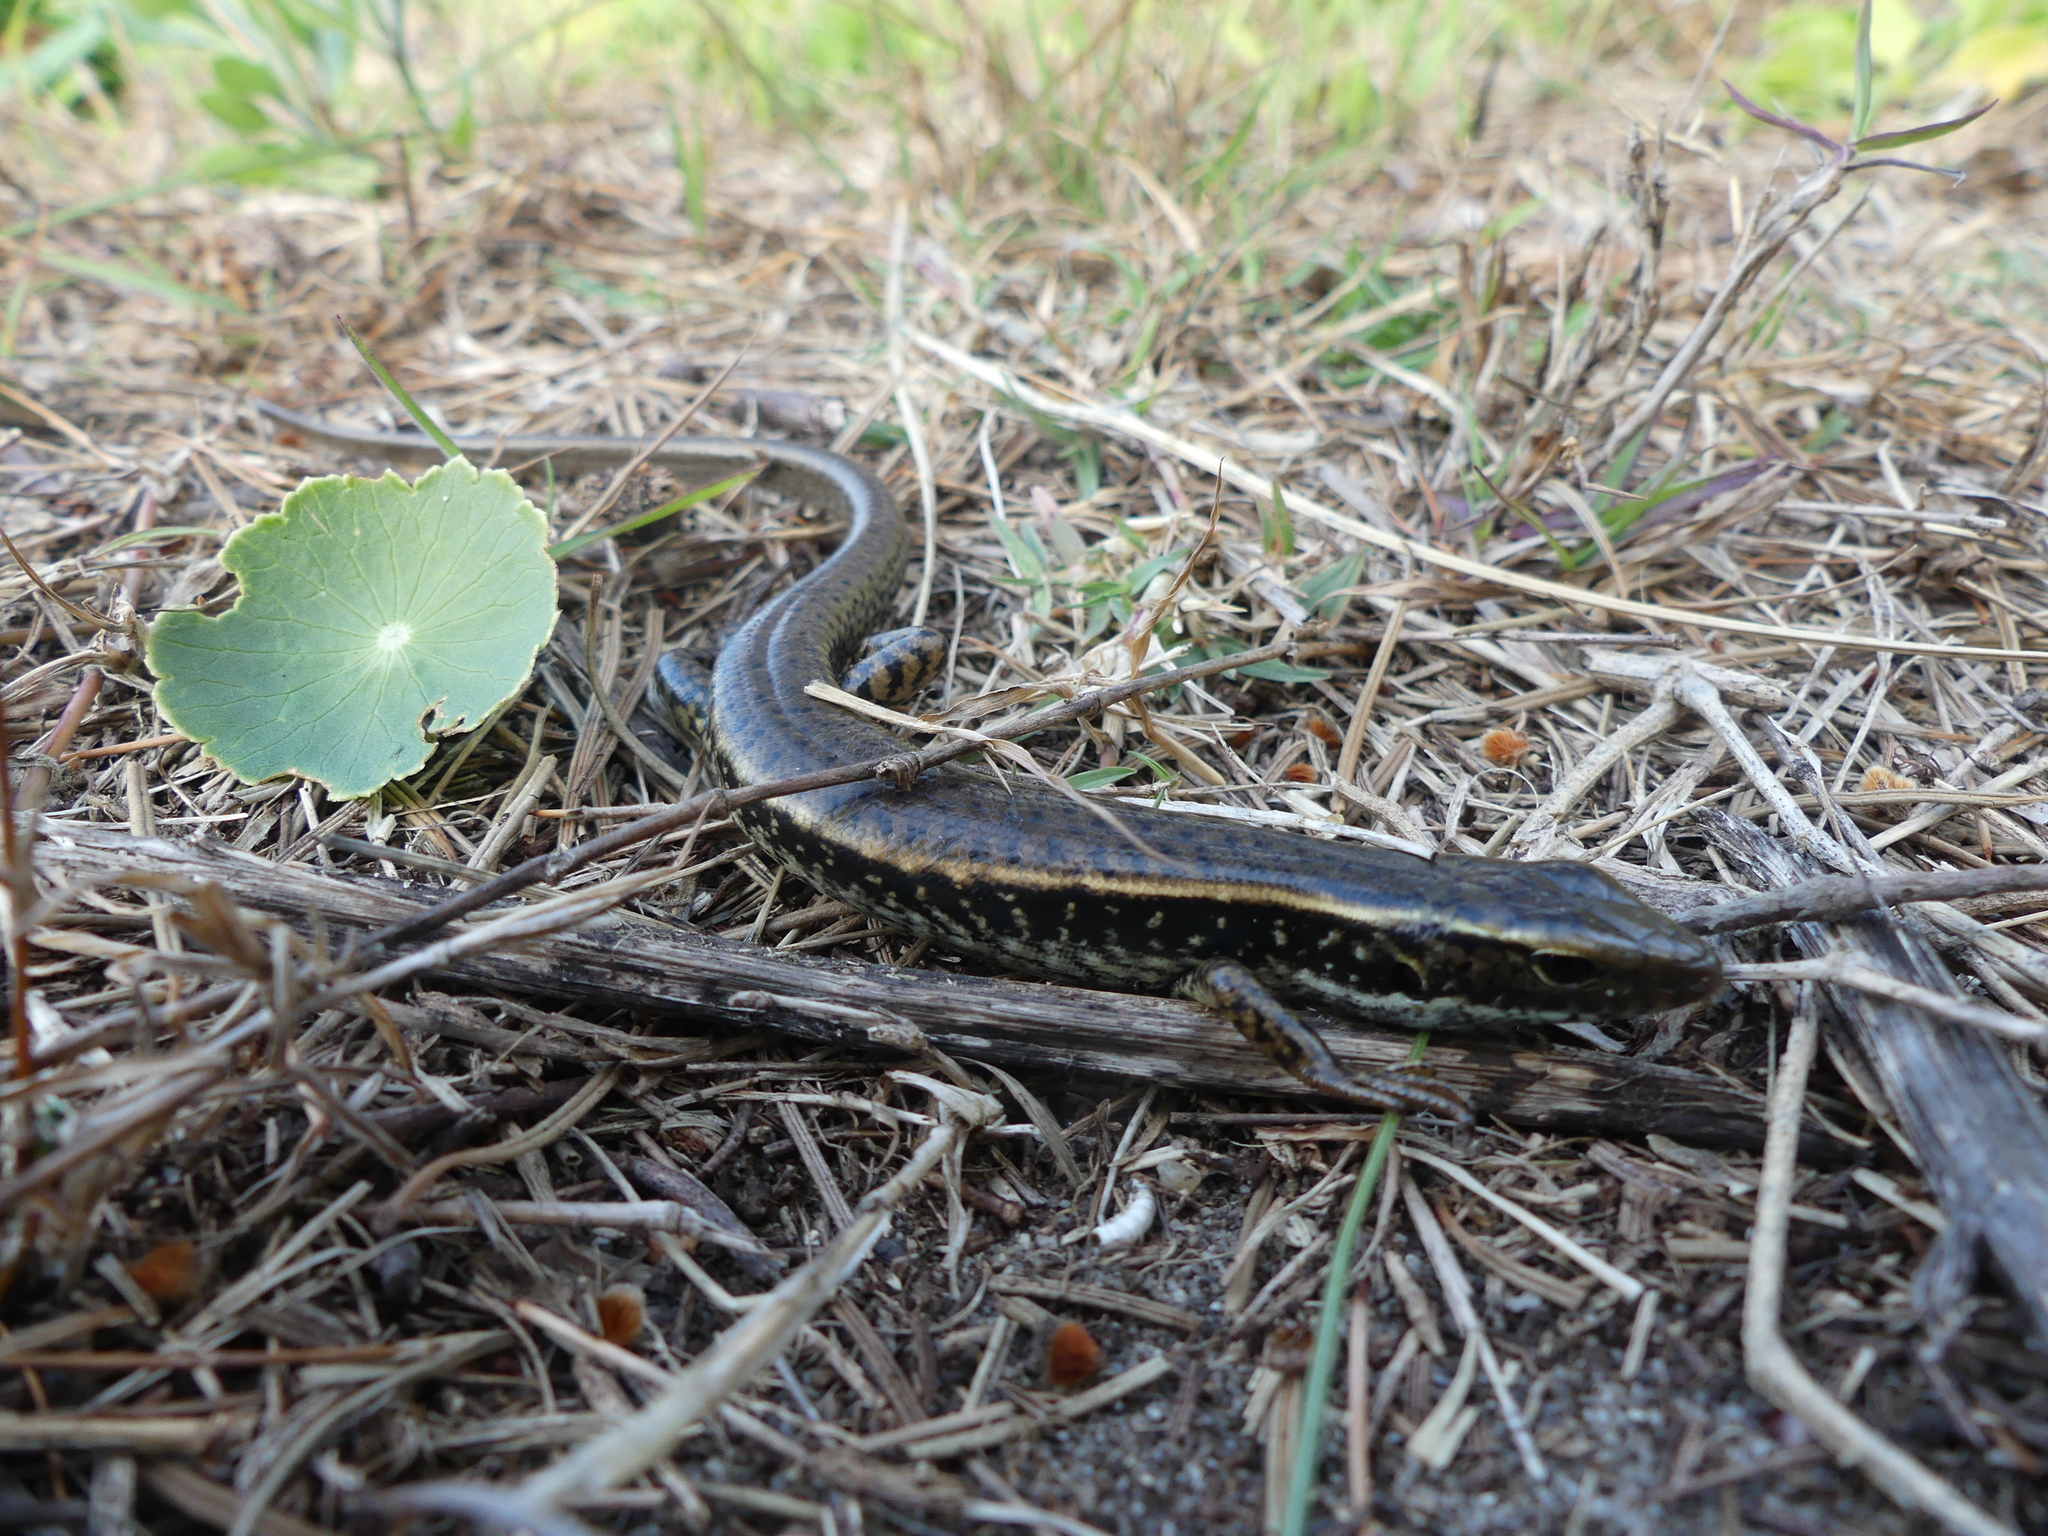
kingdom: Animalia
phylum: Chordata
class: Squamata
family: Scincidae
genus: Eulamprus
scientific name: Eulamprus quoyii
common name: Eastern water skink
